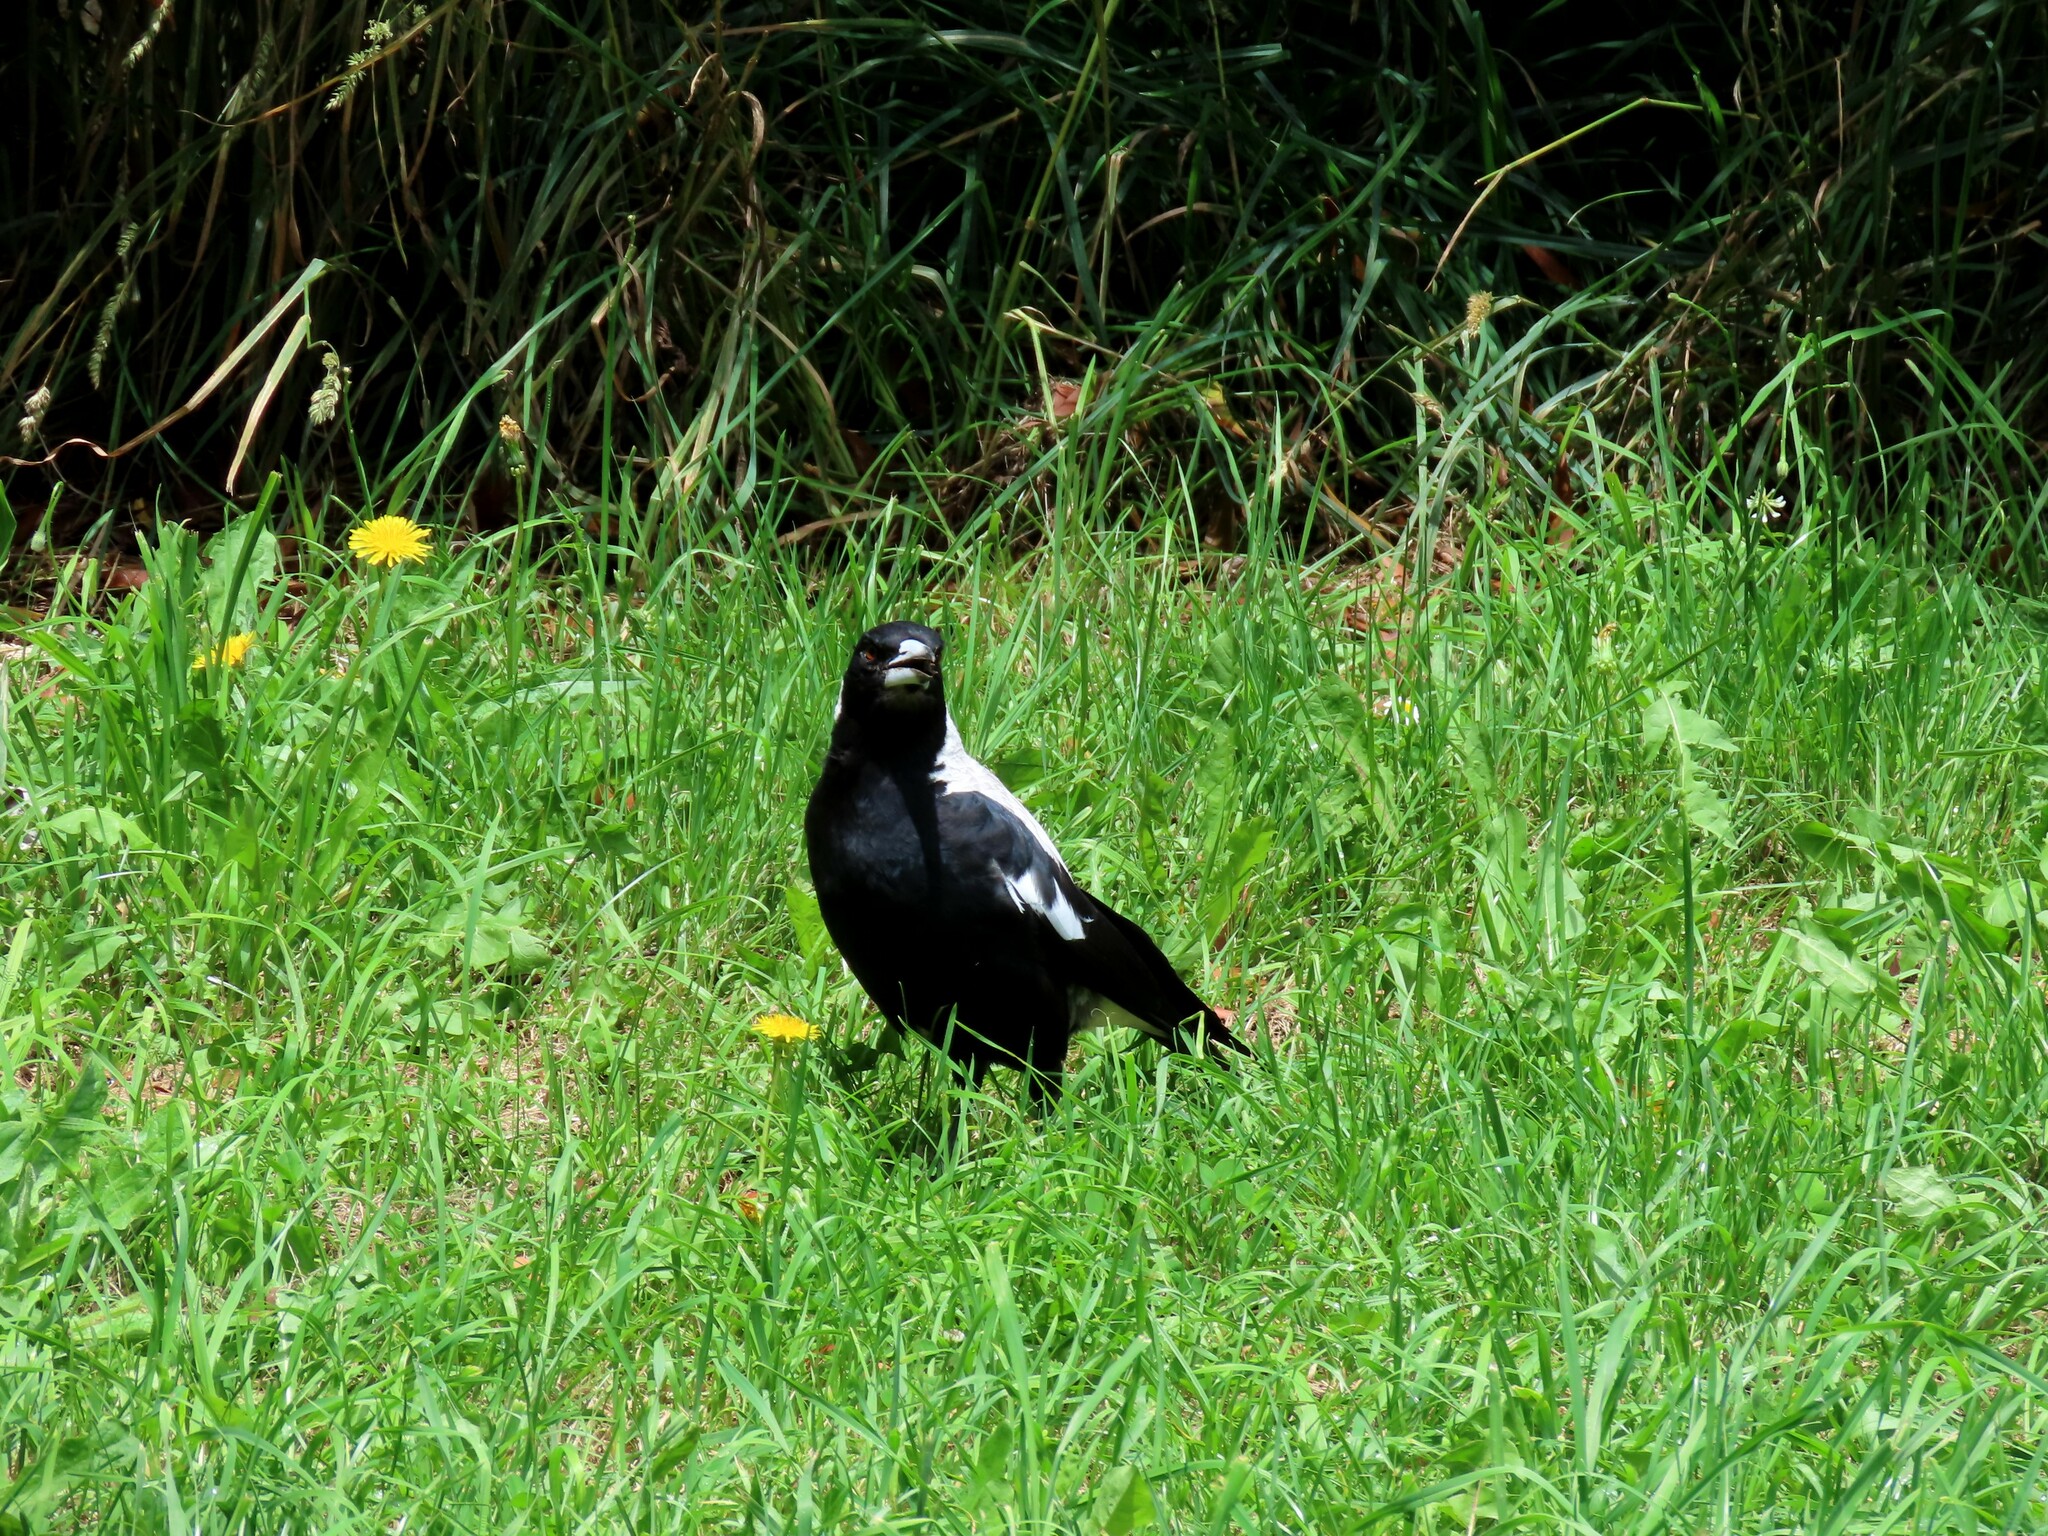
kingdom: Animalia
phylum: Chordata
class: Aves
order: Passeriformes
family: Cracticidae
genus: Gymnorhina
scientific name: Gymnorhina tibicen
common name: Australian magpie
